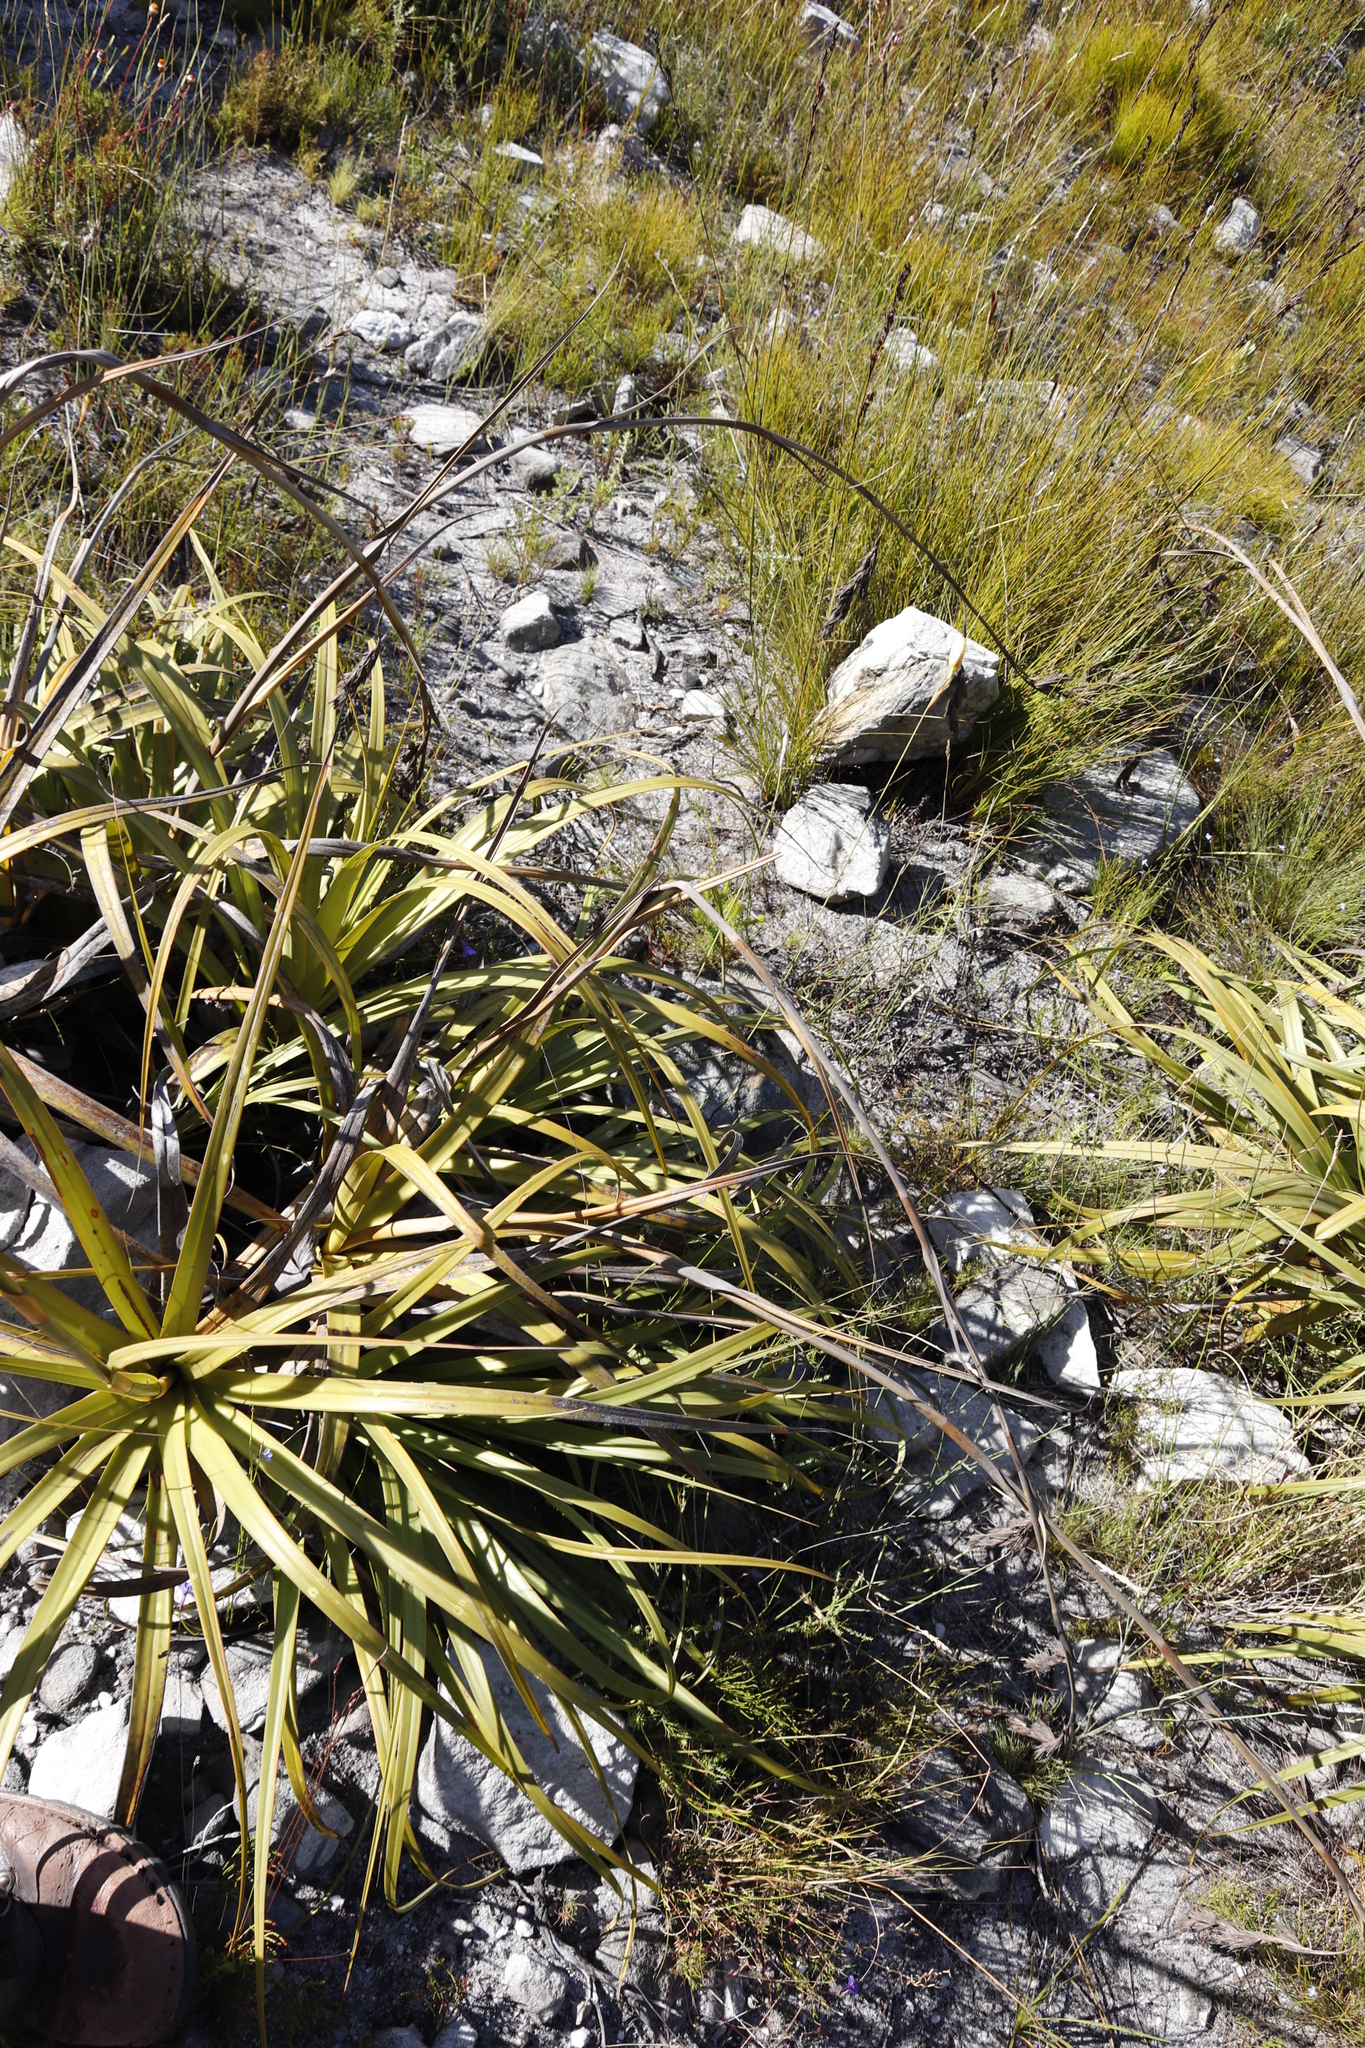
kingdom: Plantae
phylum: Tracheophyta
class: Liliopsida
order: Poales
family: Cyperaceae
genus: Tetraria
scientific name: Tetraria thermalis
